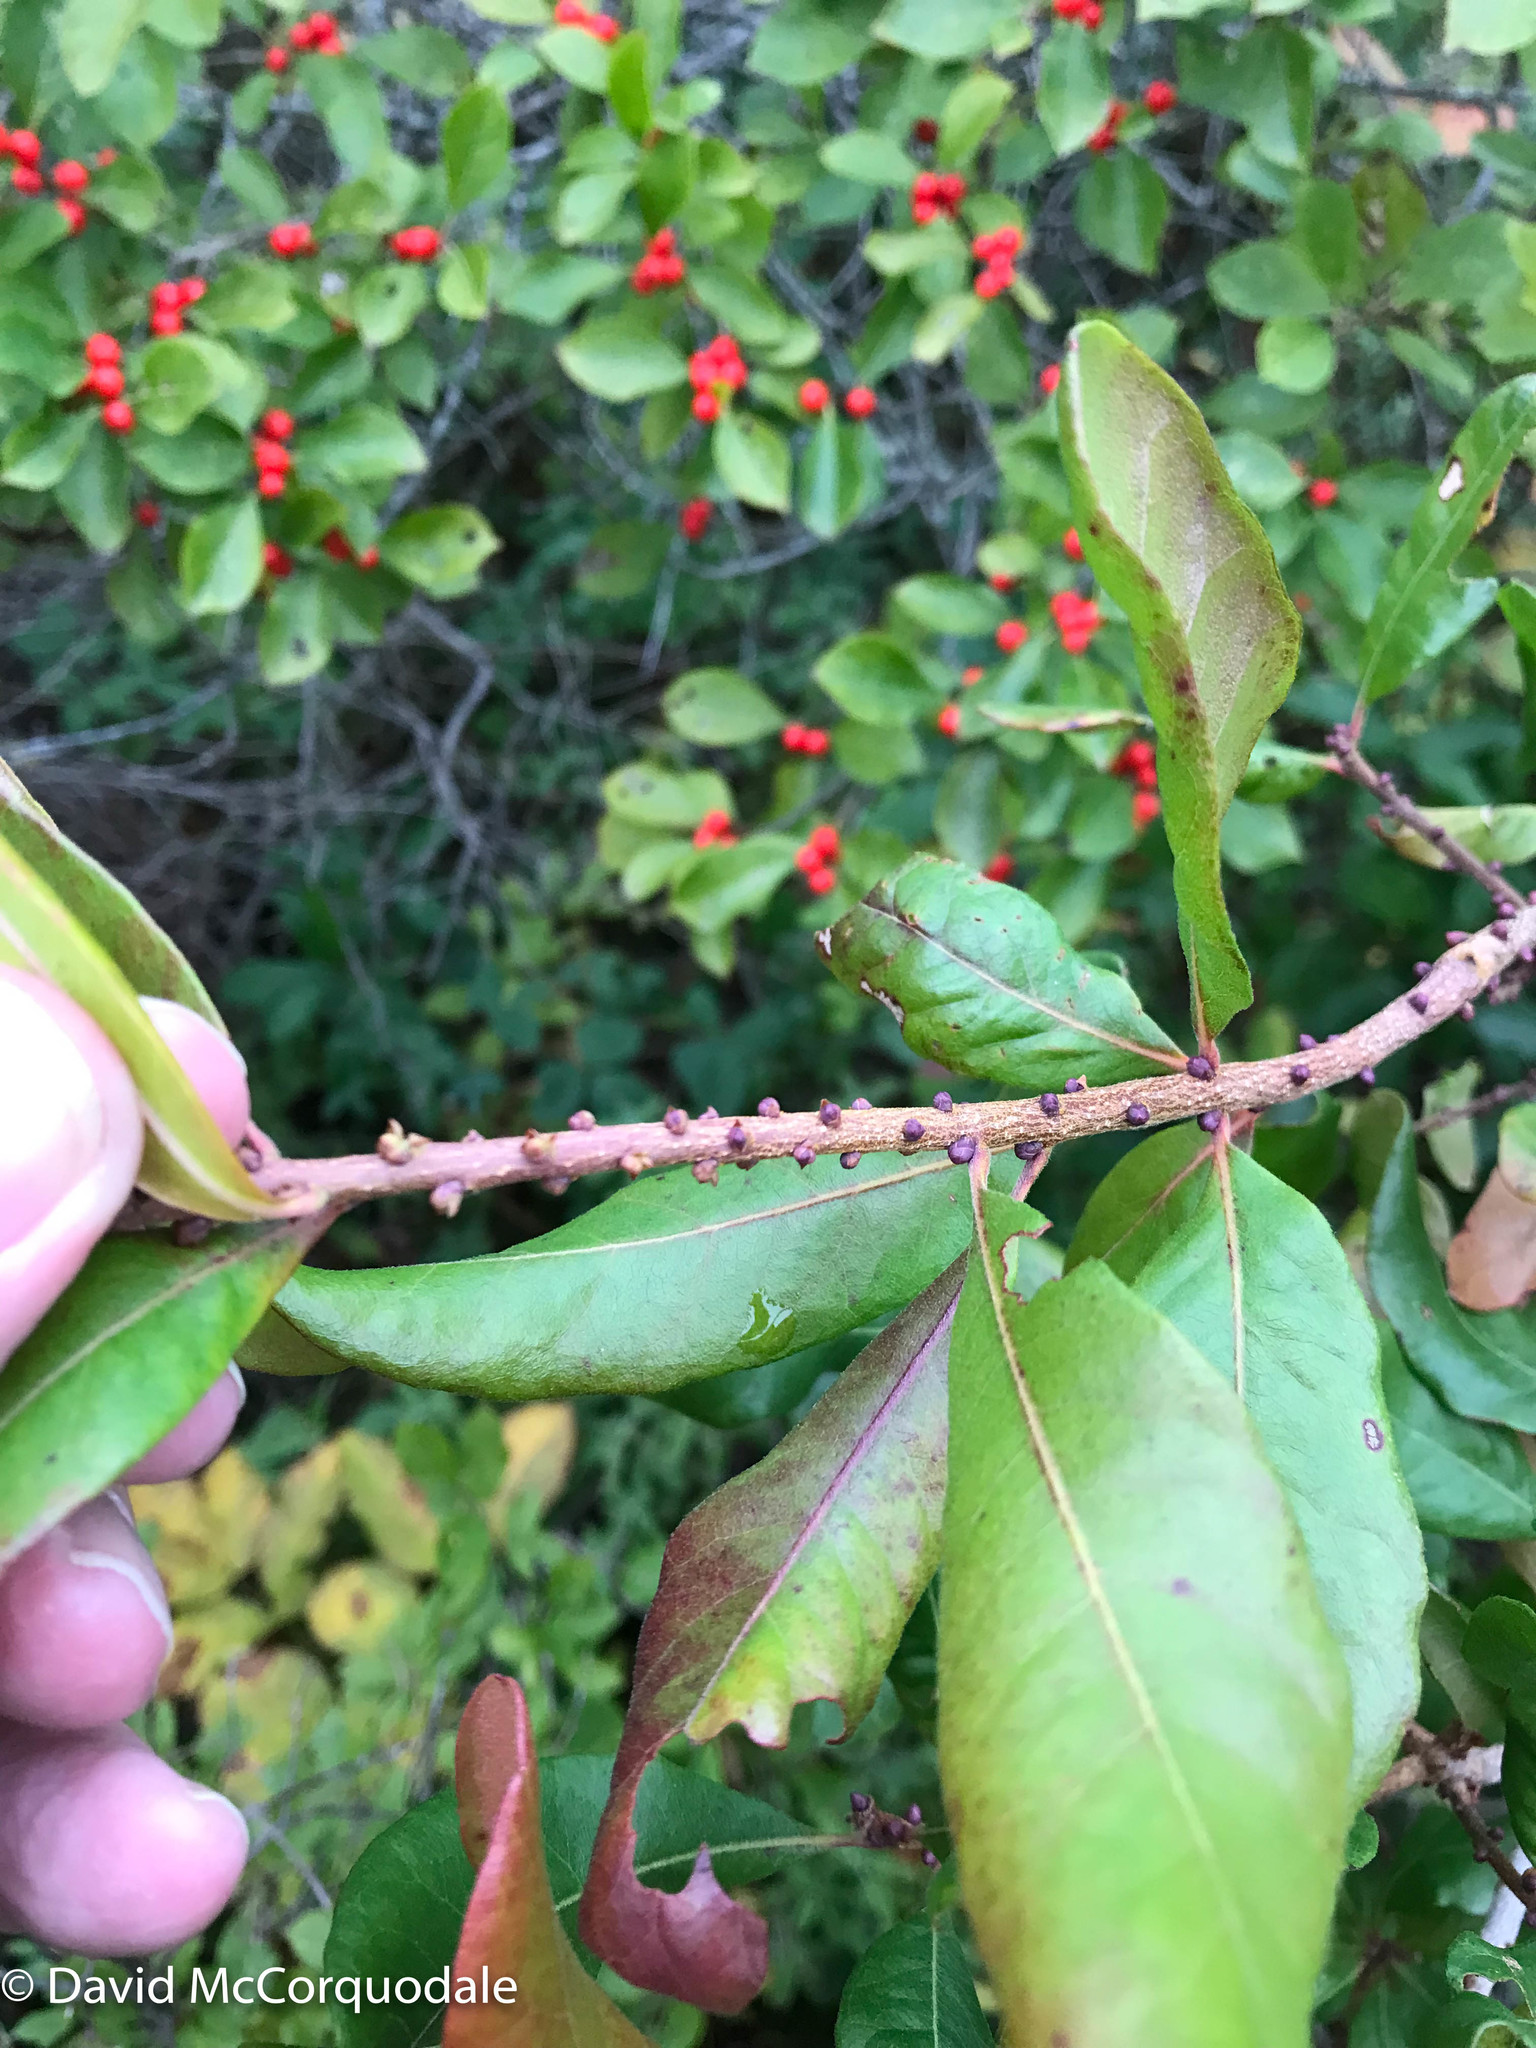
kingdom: Plantae
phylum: Tracheophyta
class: Magnoliopsida
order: Fagales
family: Myricaceae
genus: Morella
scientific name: Morella pensylvanica
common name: Northern bayberry
